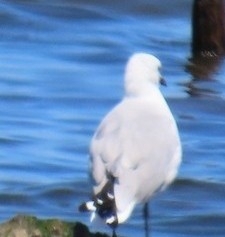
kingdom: Animalia
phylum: Chordata
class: Aves
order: Charadriiformes
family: Laridae
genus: Chroicocephalus
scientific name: Chroicocephalus hartlaubii
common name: Hartlaub's gull
